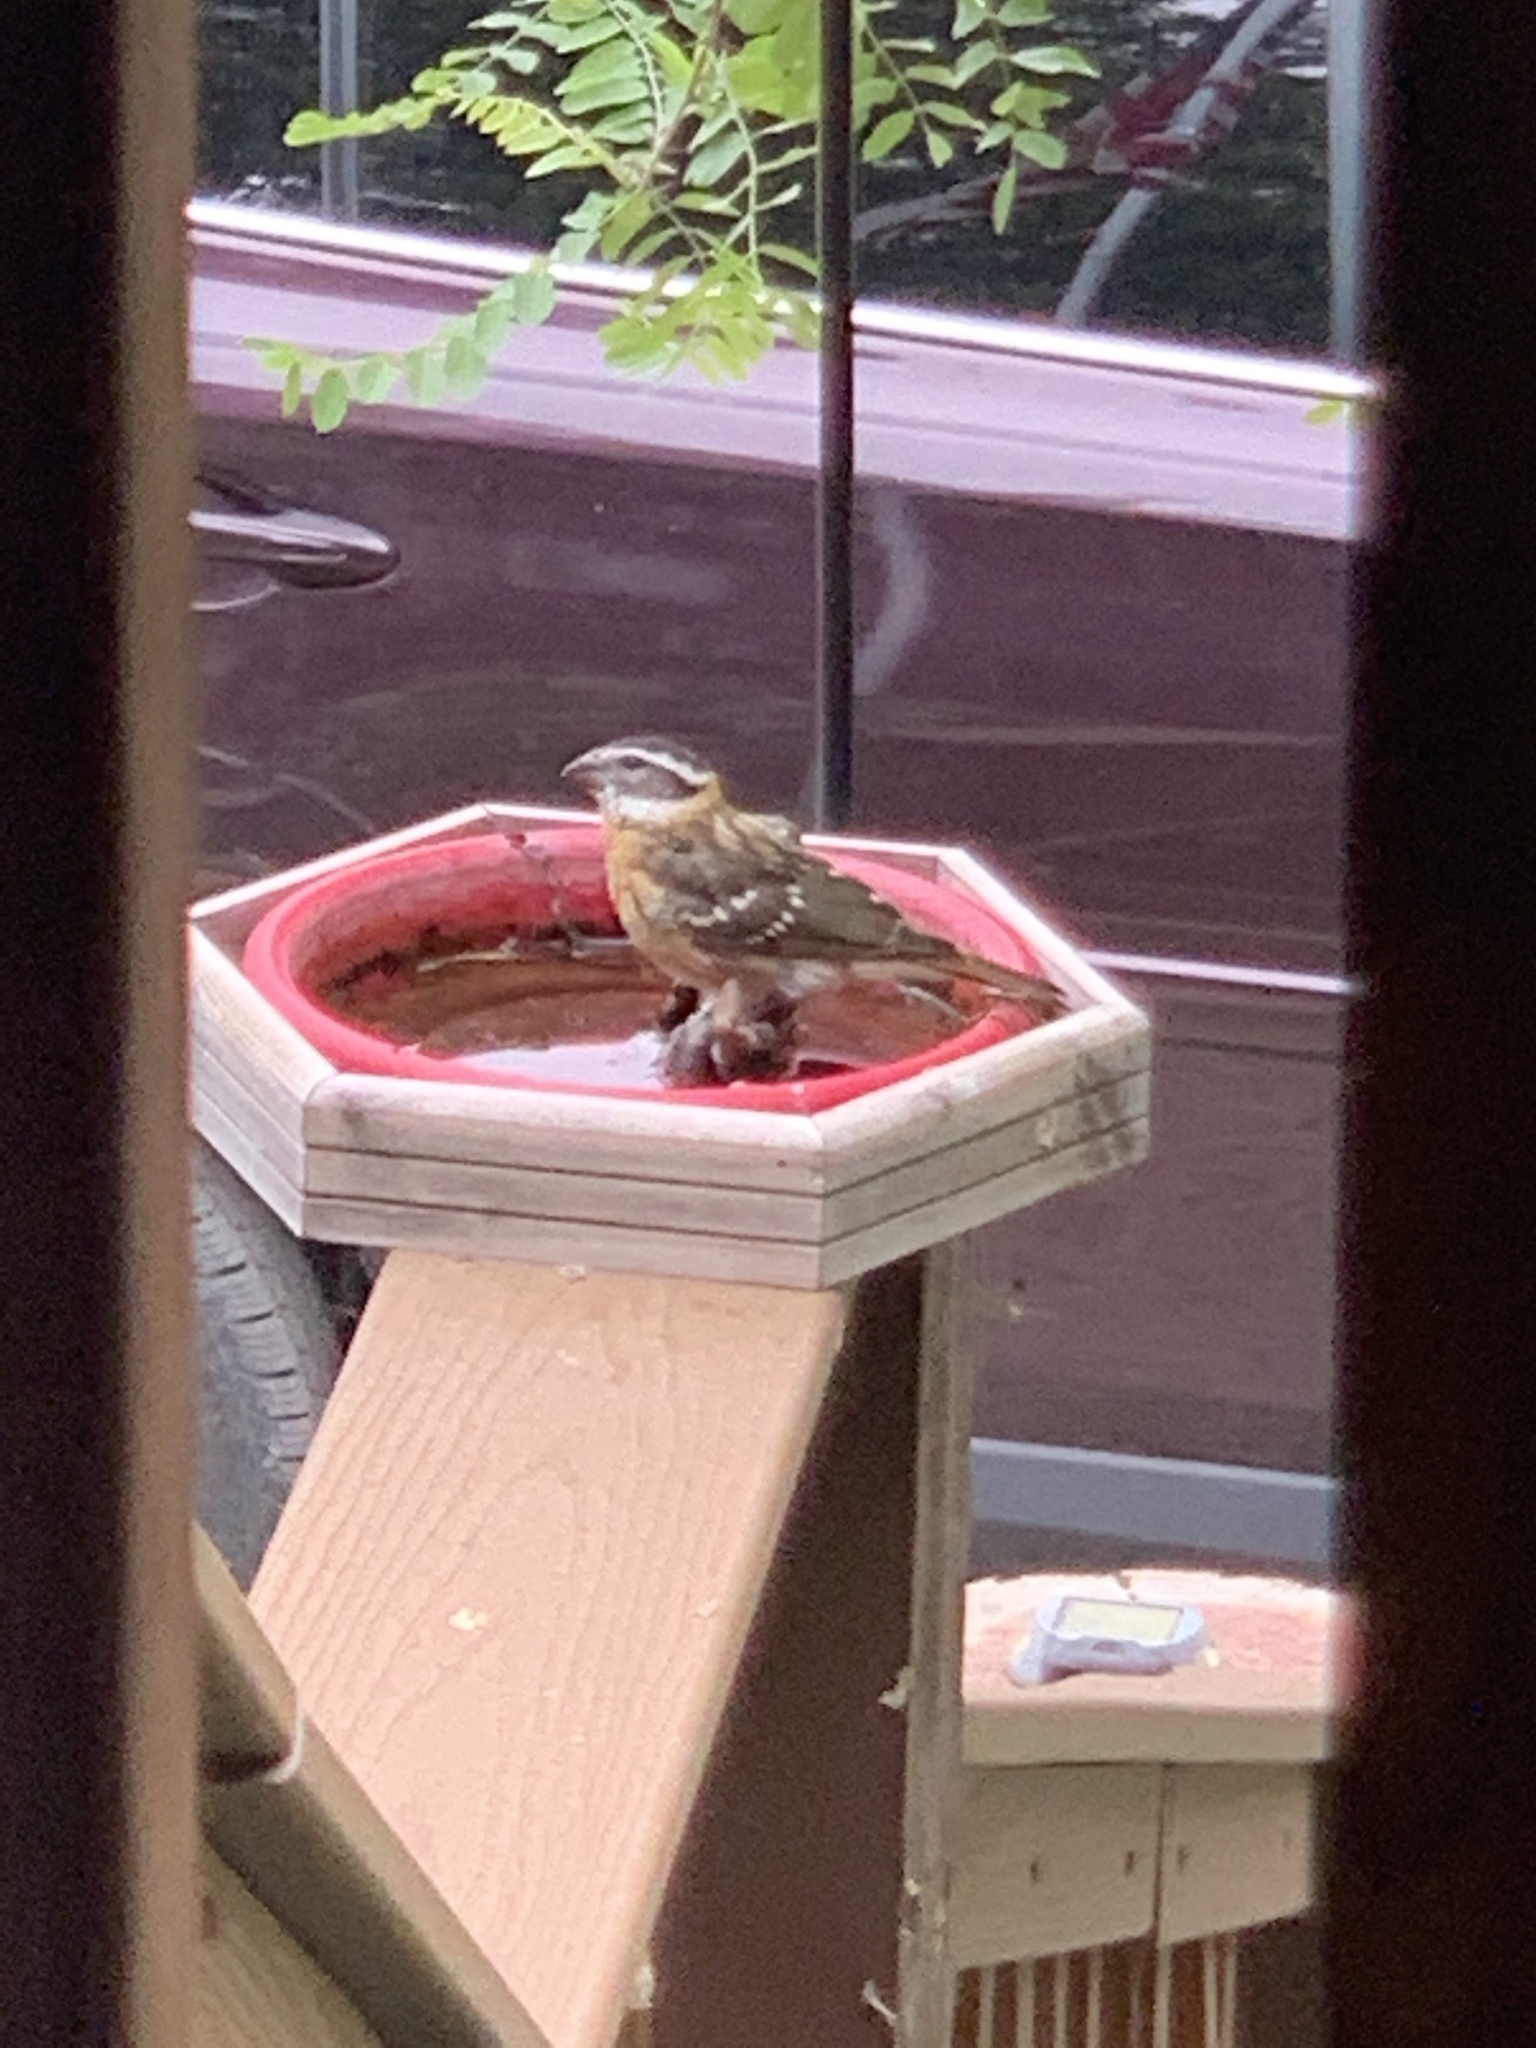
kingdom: Animalia
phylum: Chordata
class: Aves
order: Passeriformes
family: Cardinalidae
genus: Pheucticus
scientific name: Pheucticus melanocephalus
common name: Black-headed grosbeak
